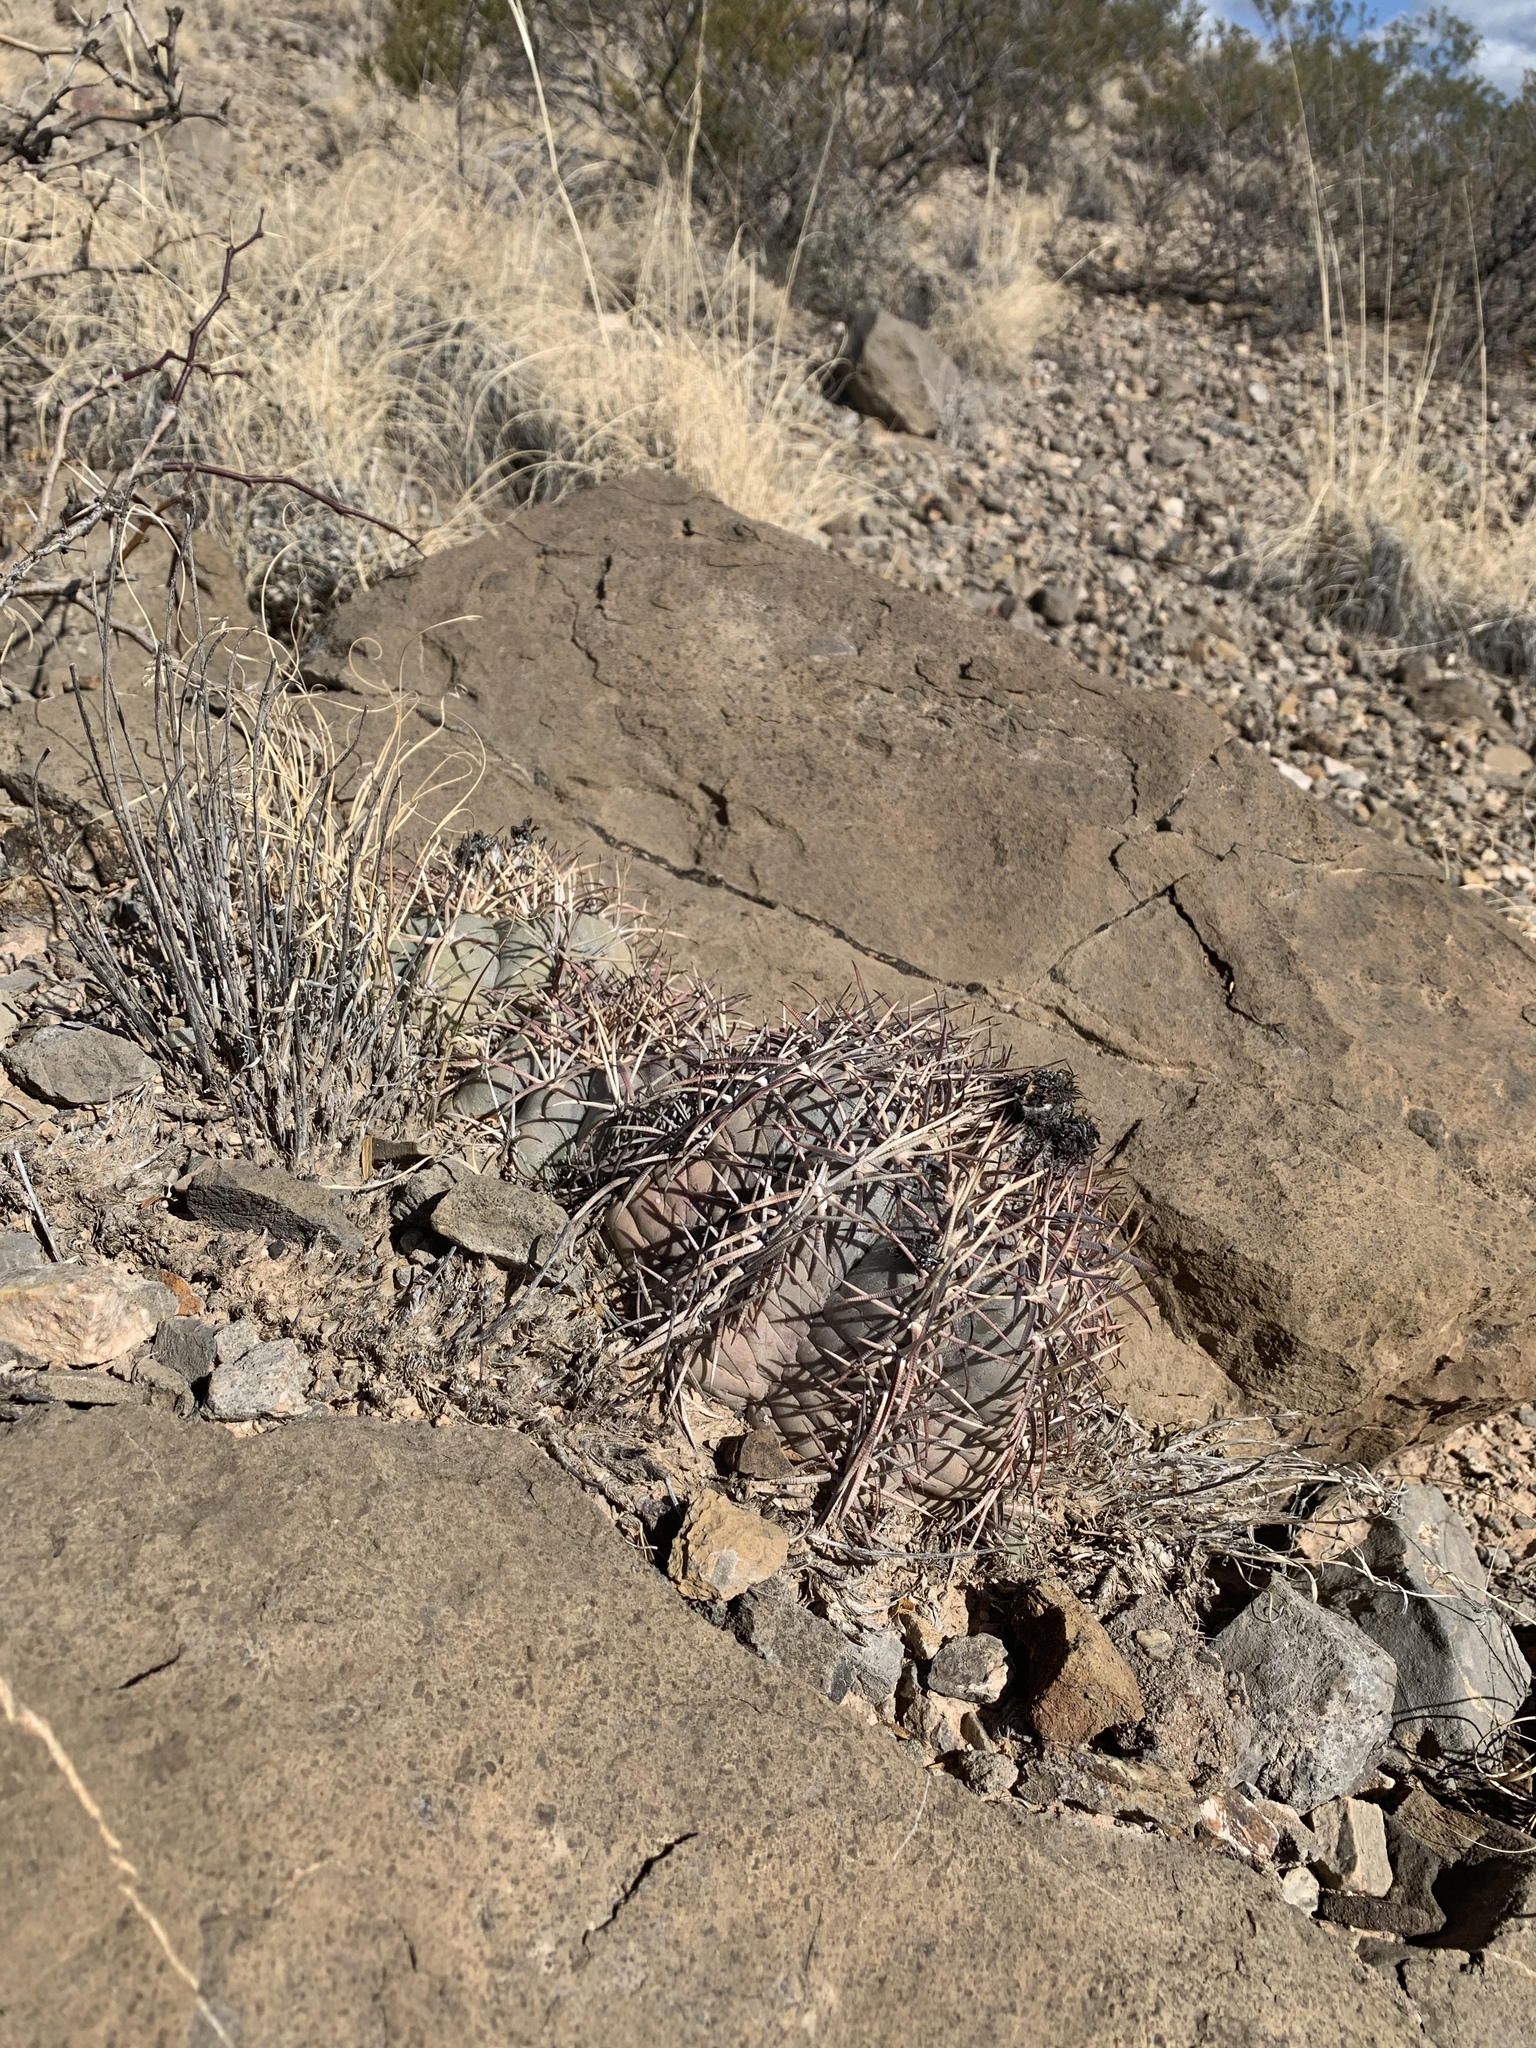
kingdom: Plantae
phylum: Tracheophyta
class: Magnoliopsida
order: Caryophyllales
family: Cactaceae
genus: Echinocactus
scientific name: Echinocactus horizonthalonius
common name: Devilshead
